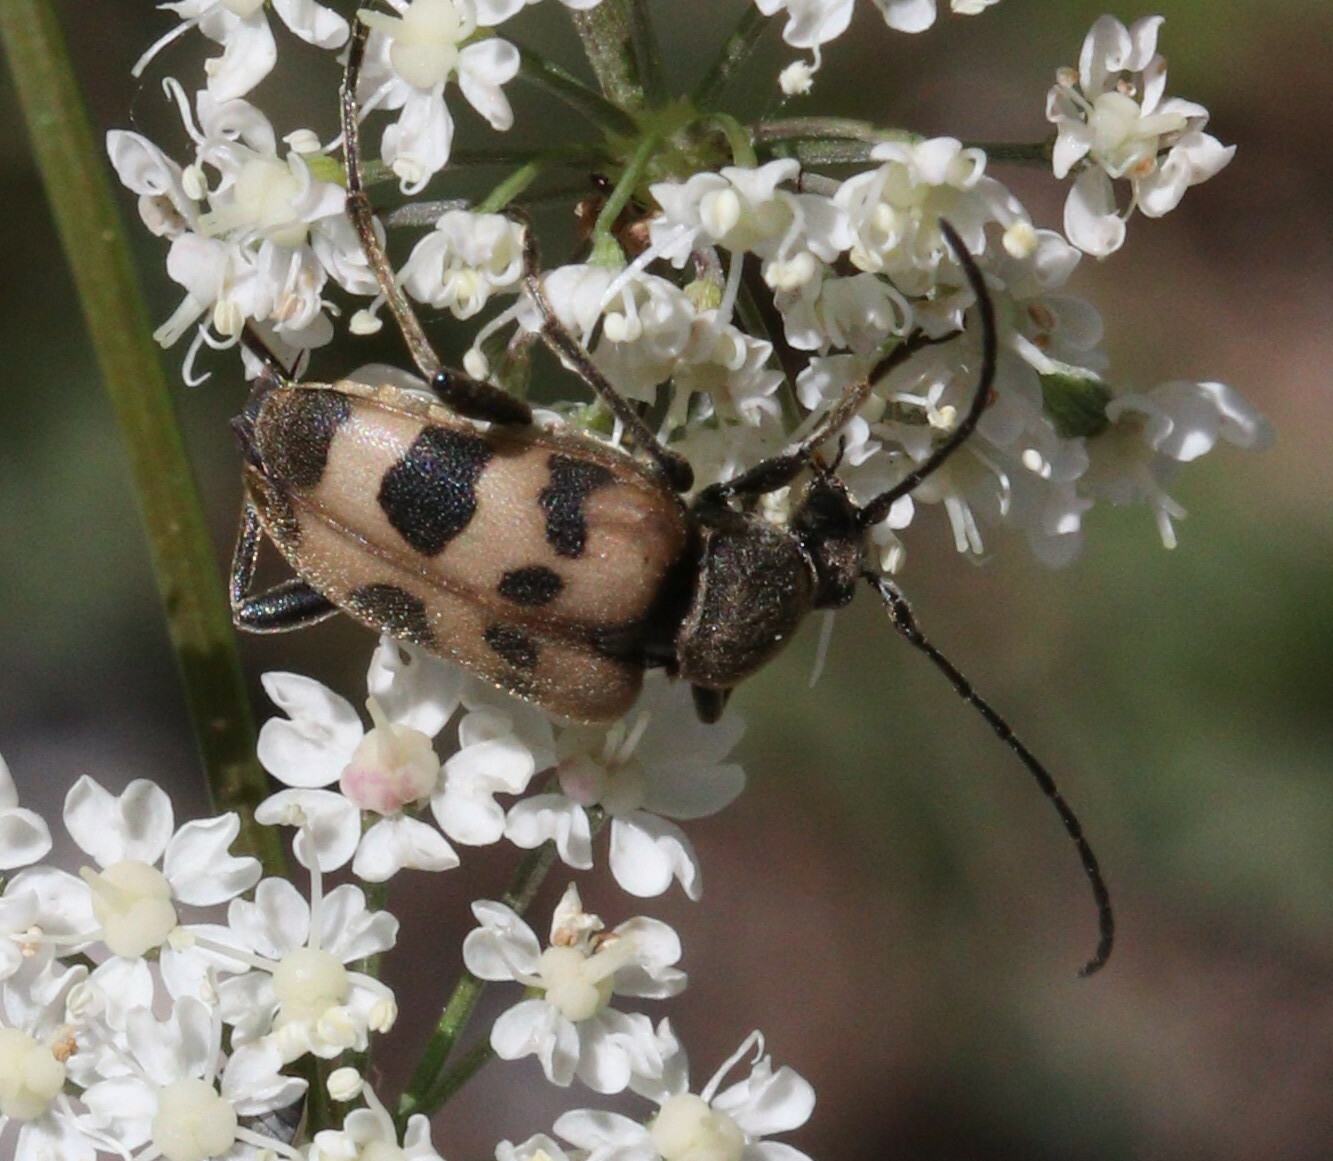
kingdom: Animalia
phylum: Arthropoda
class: Insecta
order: Coleoptera
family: Cerambycidae
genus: Pachytodes
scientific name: Pachytodes cerambyciformis
